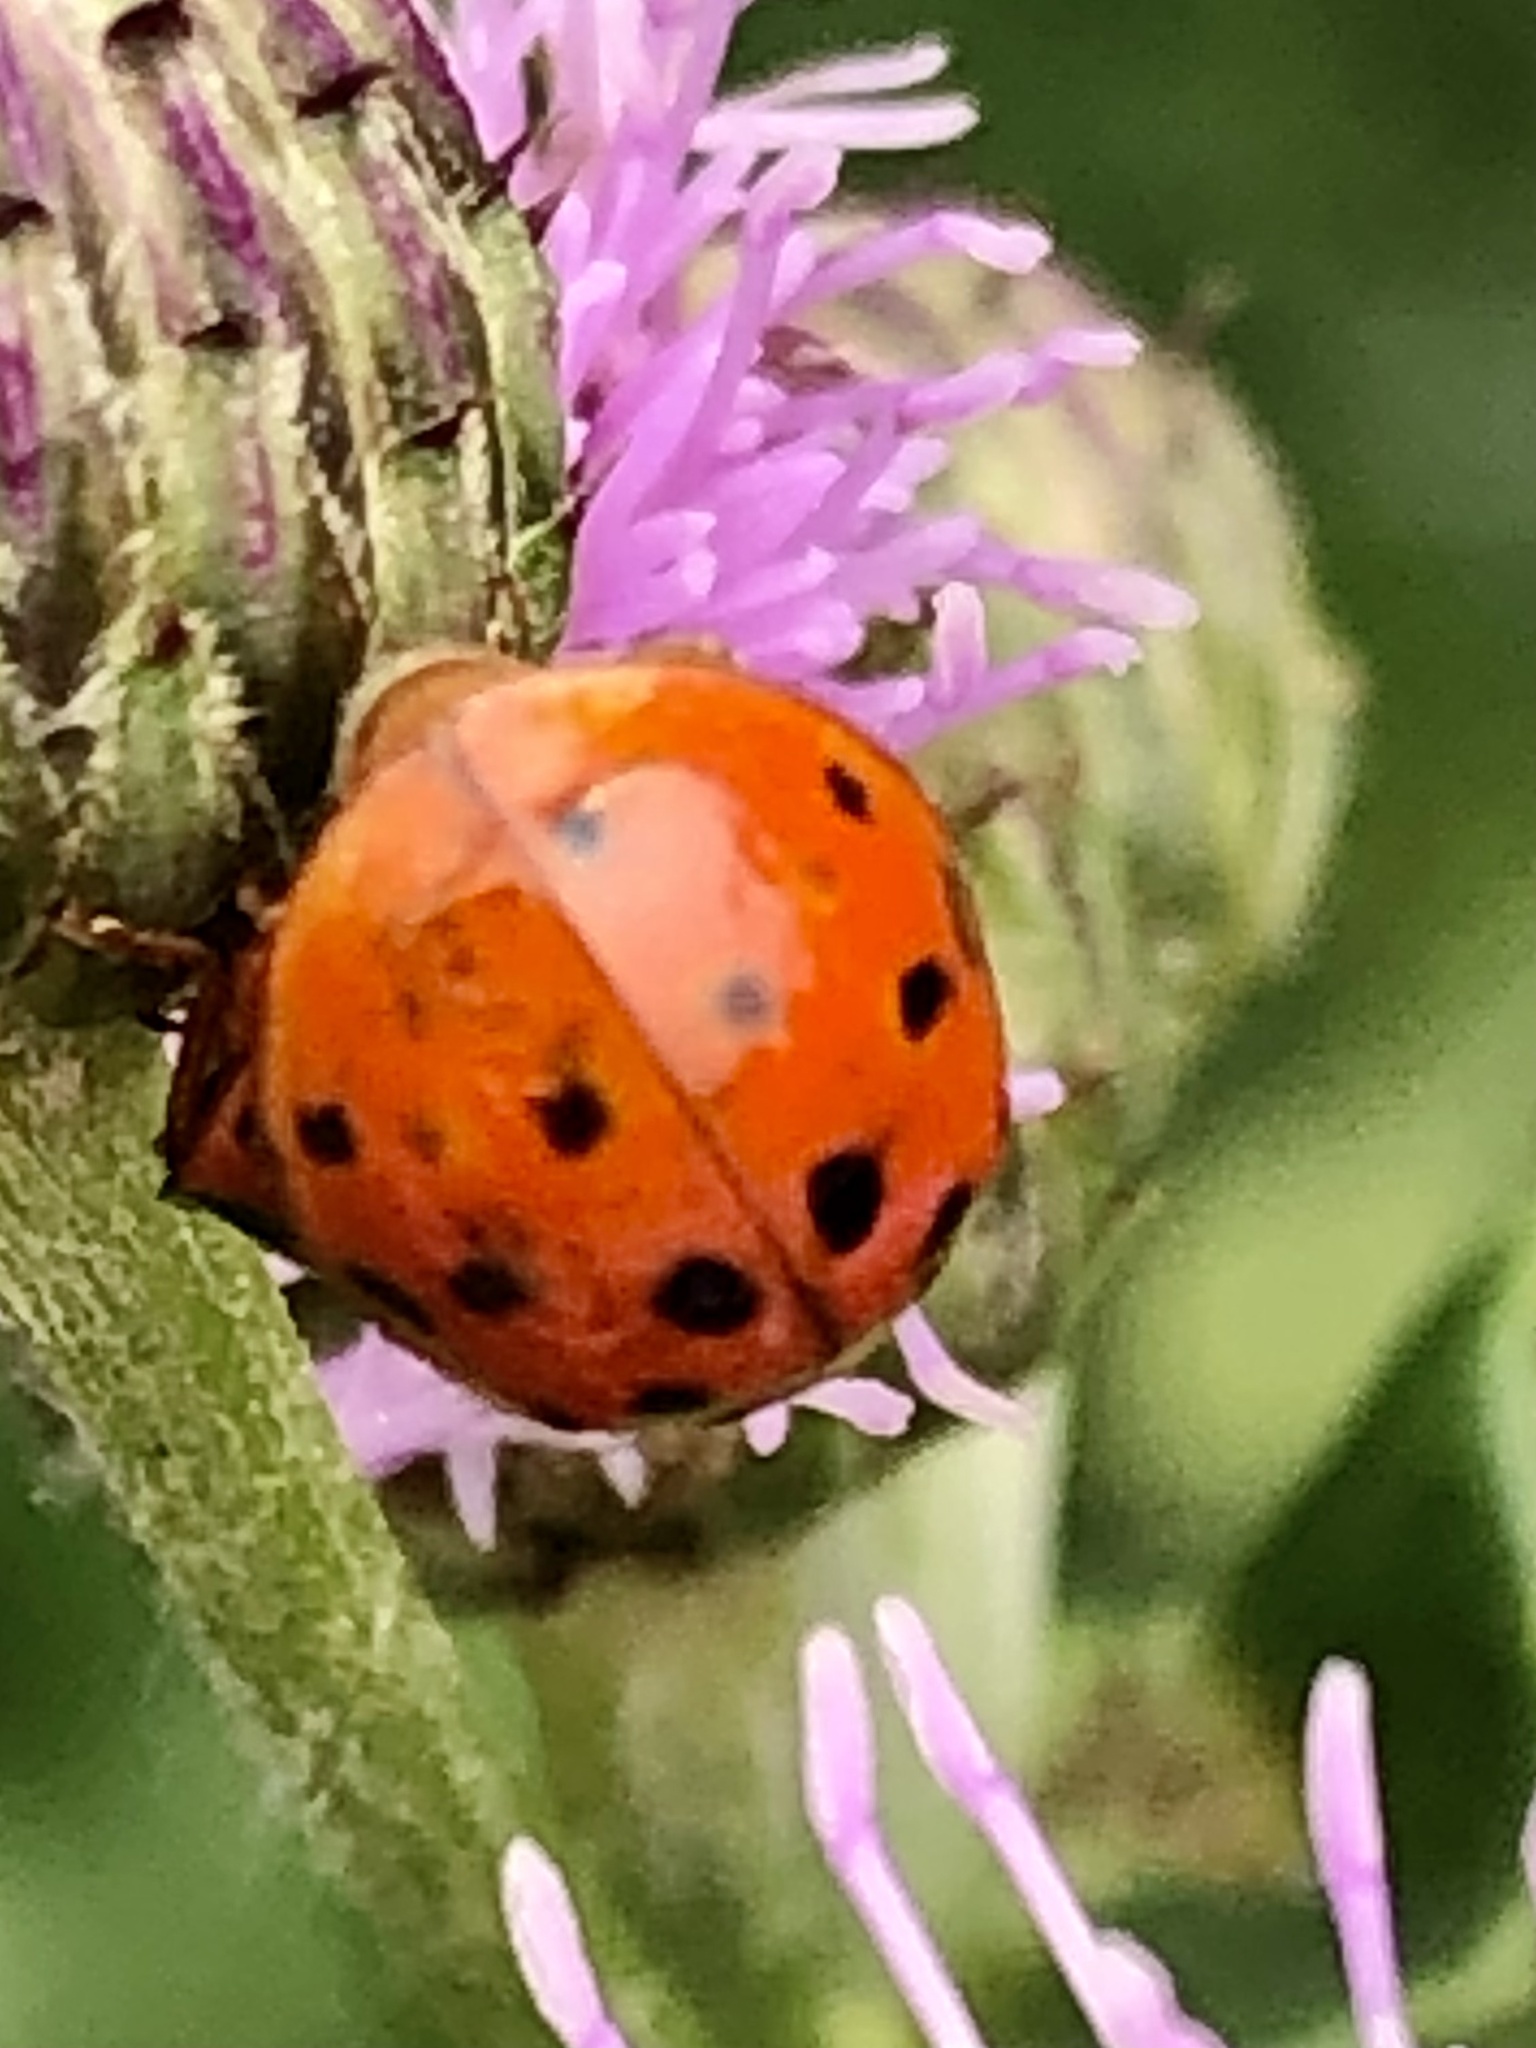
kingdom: Animalia
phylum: Arthropoda
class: Insecta
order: Coleoptera
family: Coccinellidae
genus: Harmonia
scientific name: Harmonia axyridis
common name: Harlequin ladybird
